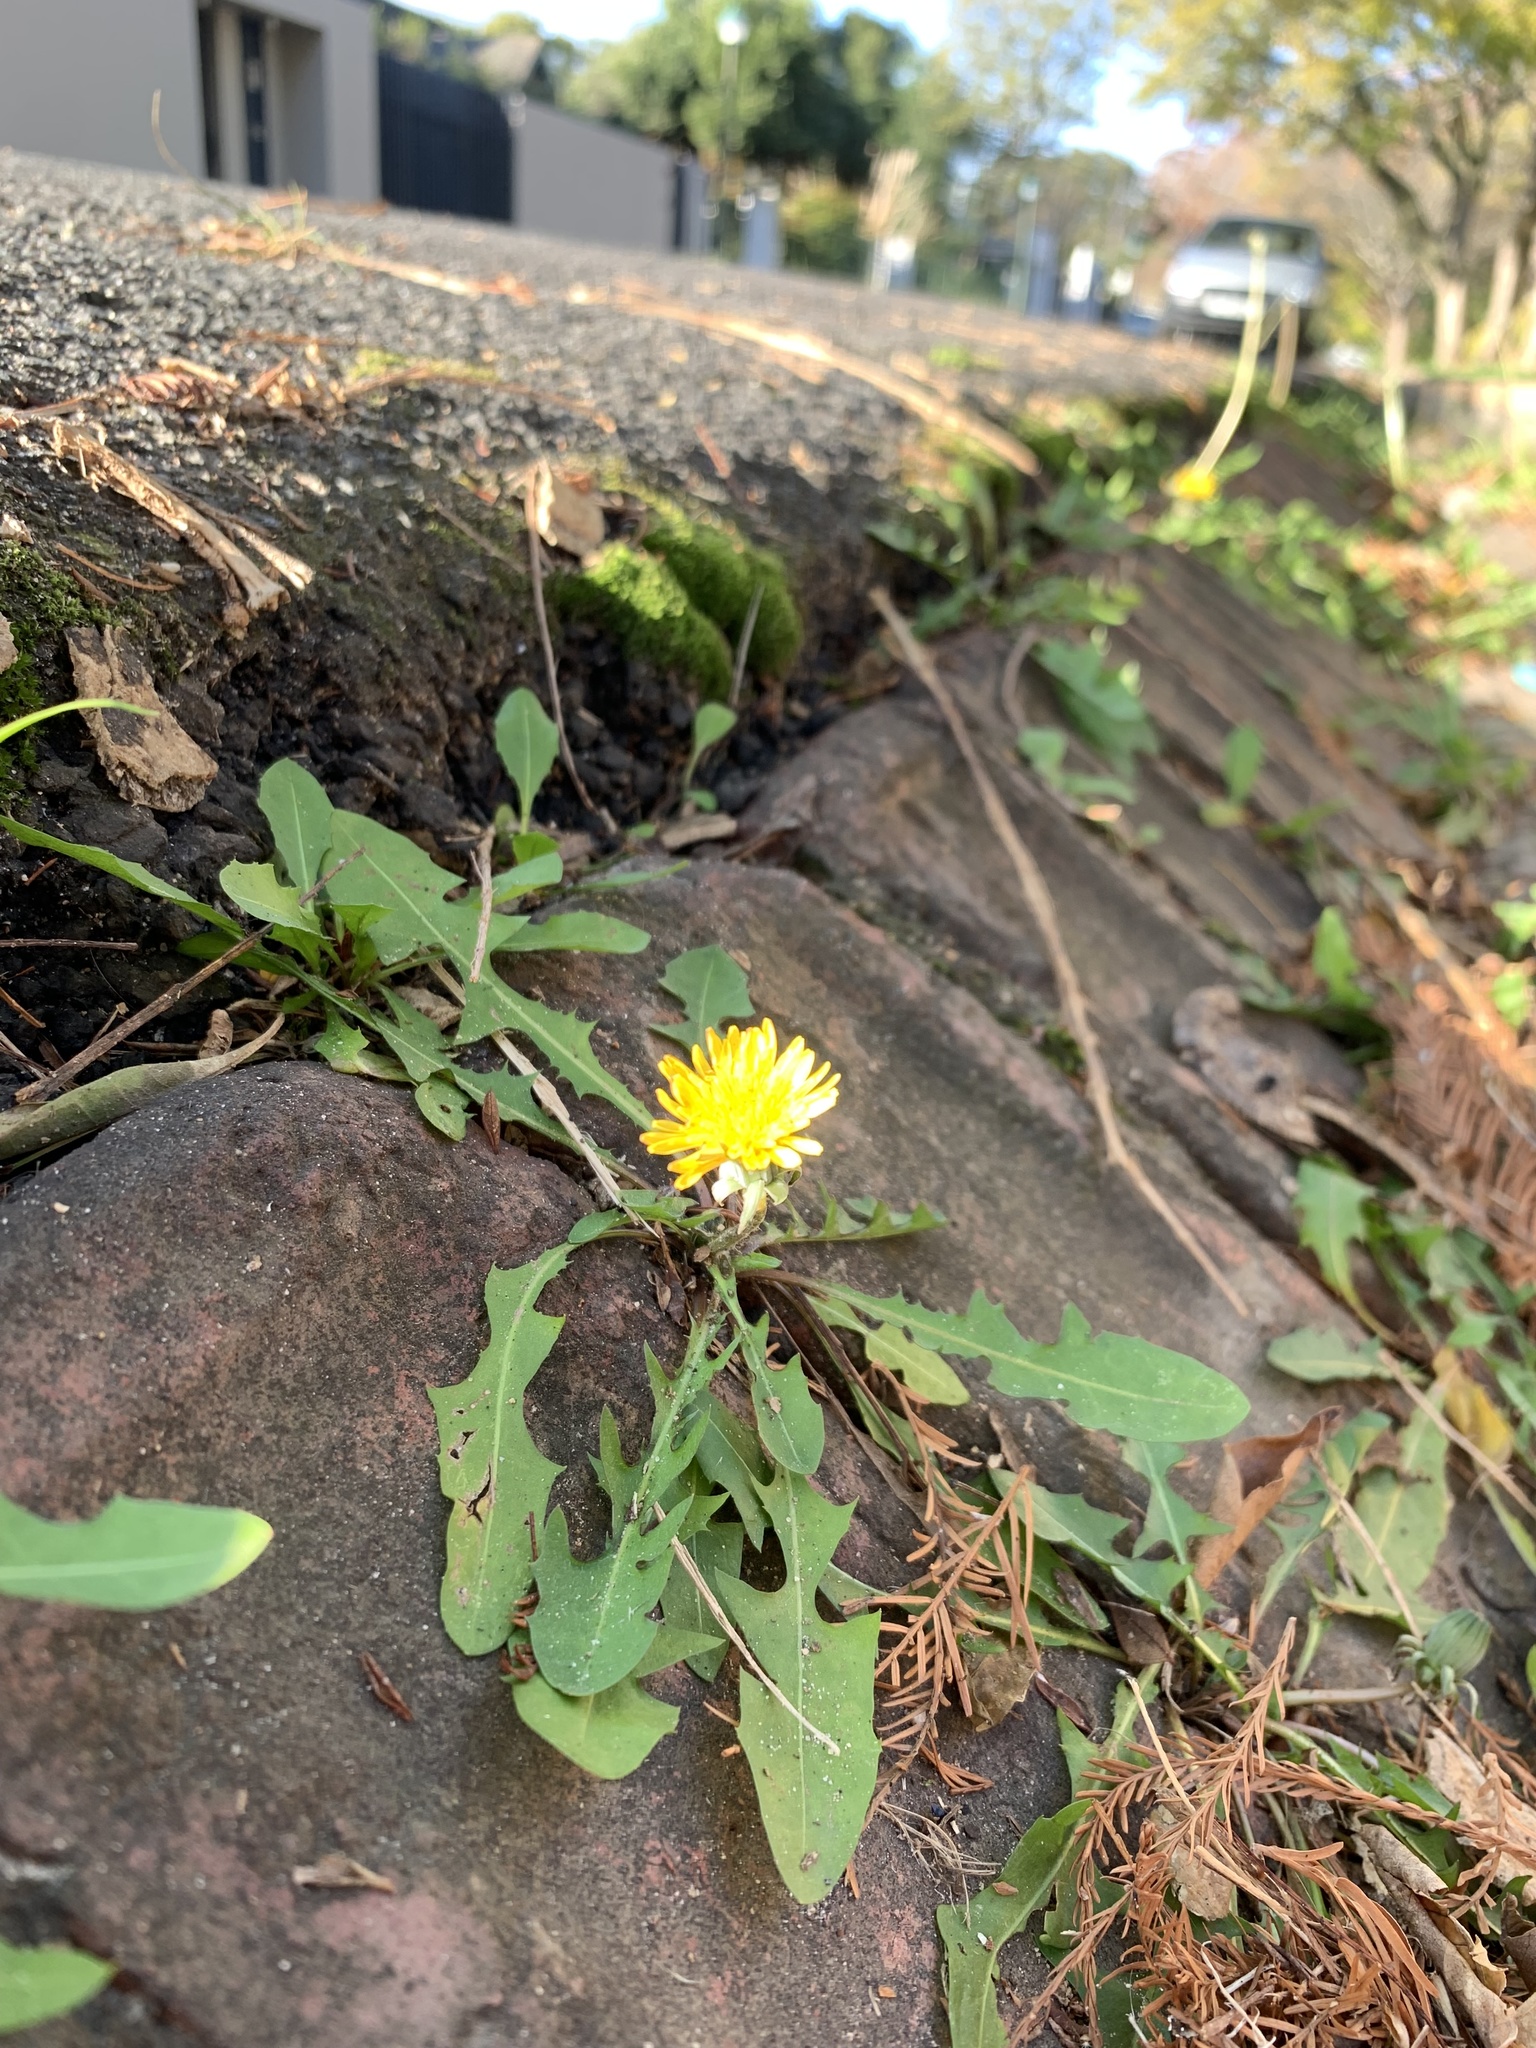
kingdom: Plantae
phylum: Tracheophyta
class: Magnoliopsida
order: Asterales
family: Asteraceae
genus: Taraxacum
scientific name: Taraxacum officinale
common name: Common dandelion
